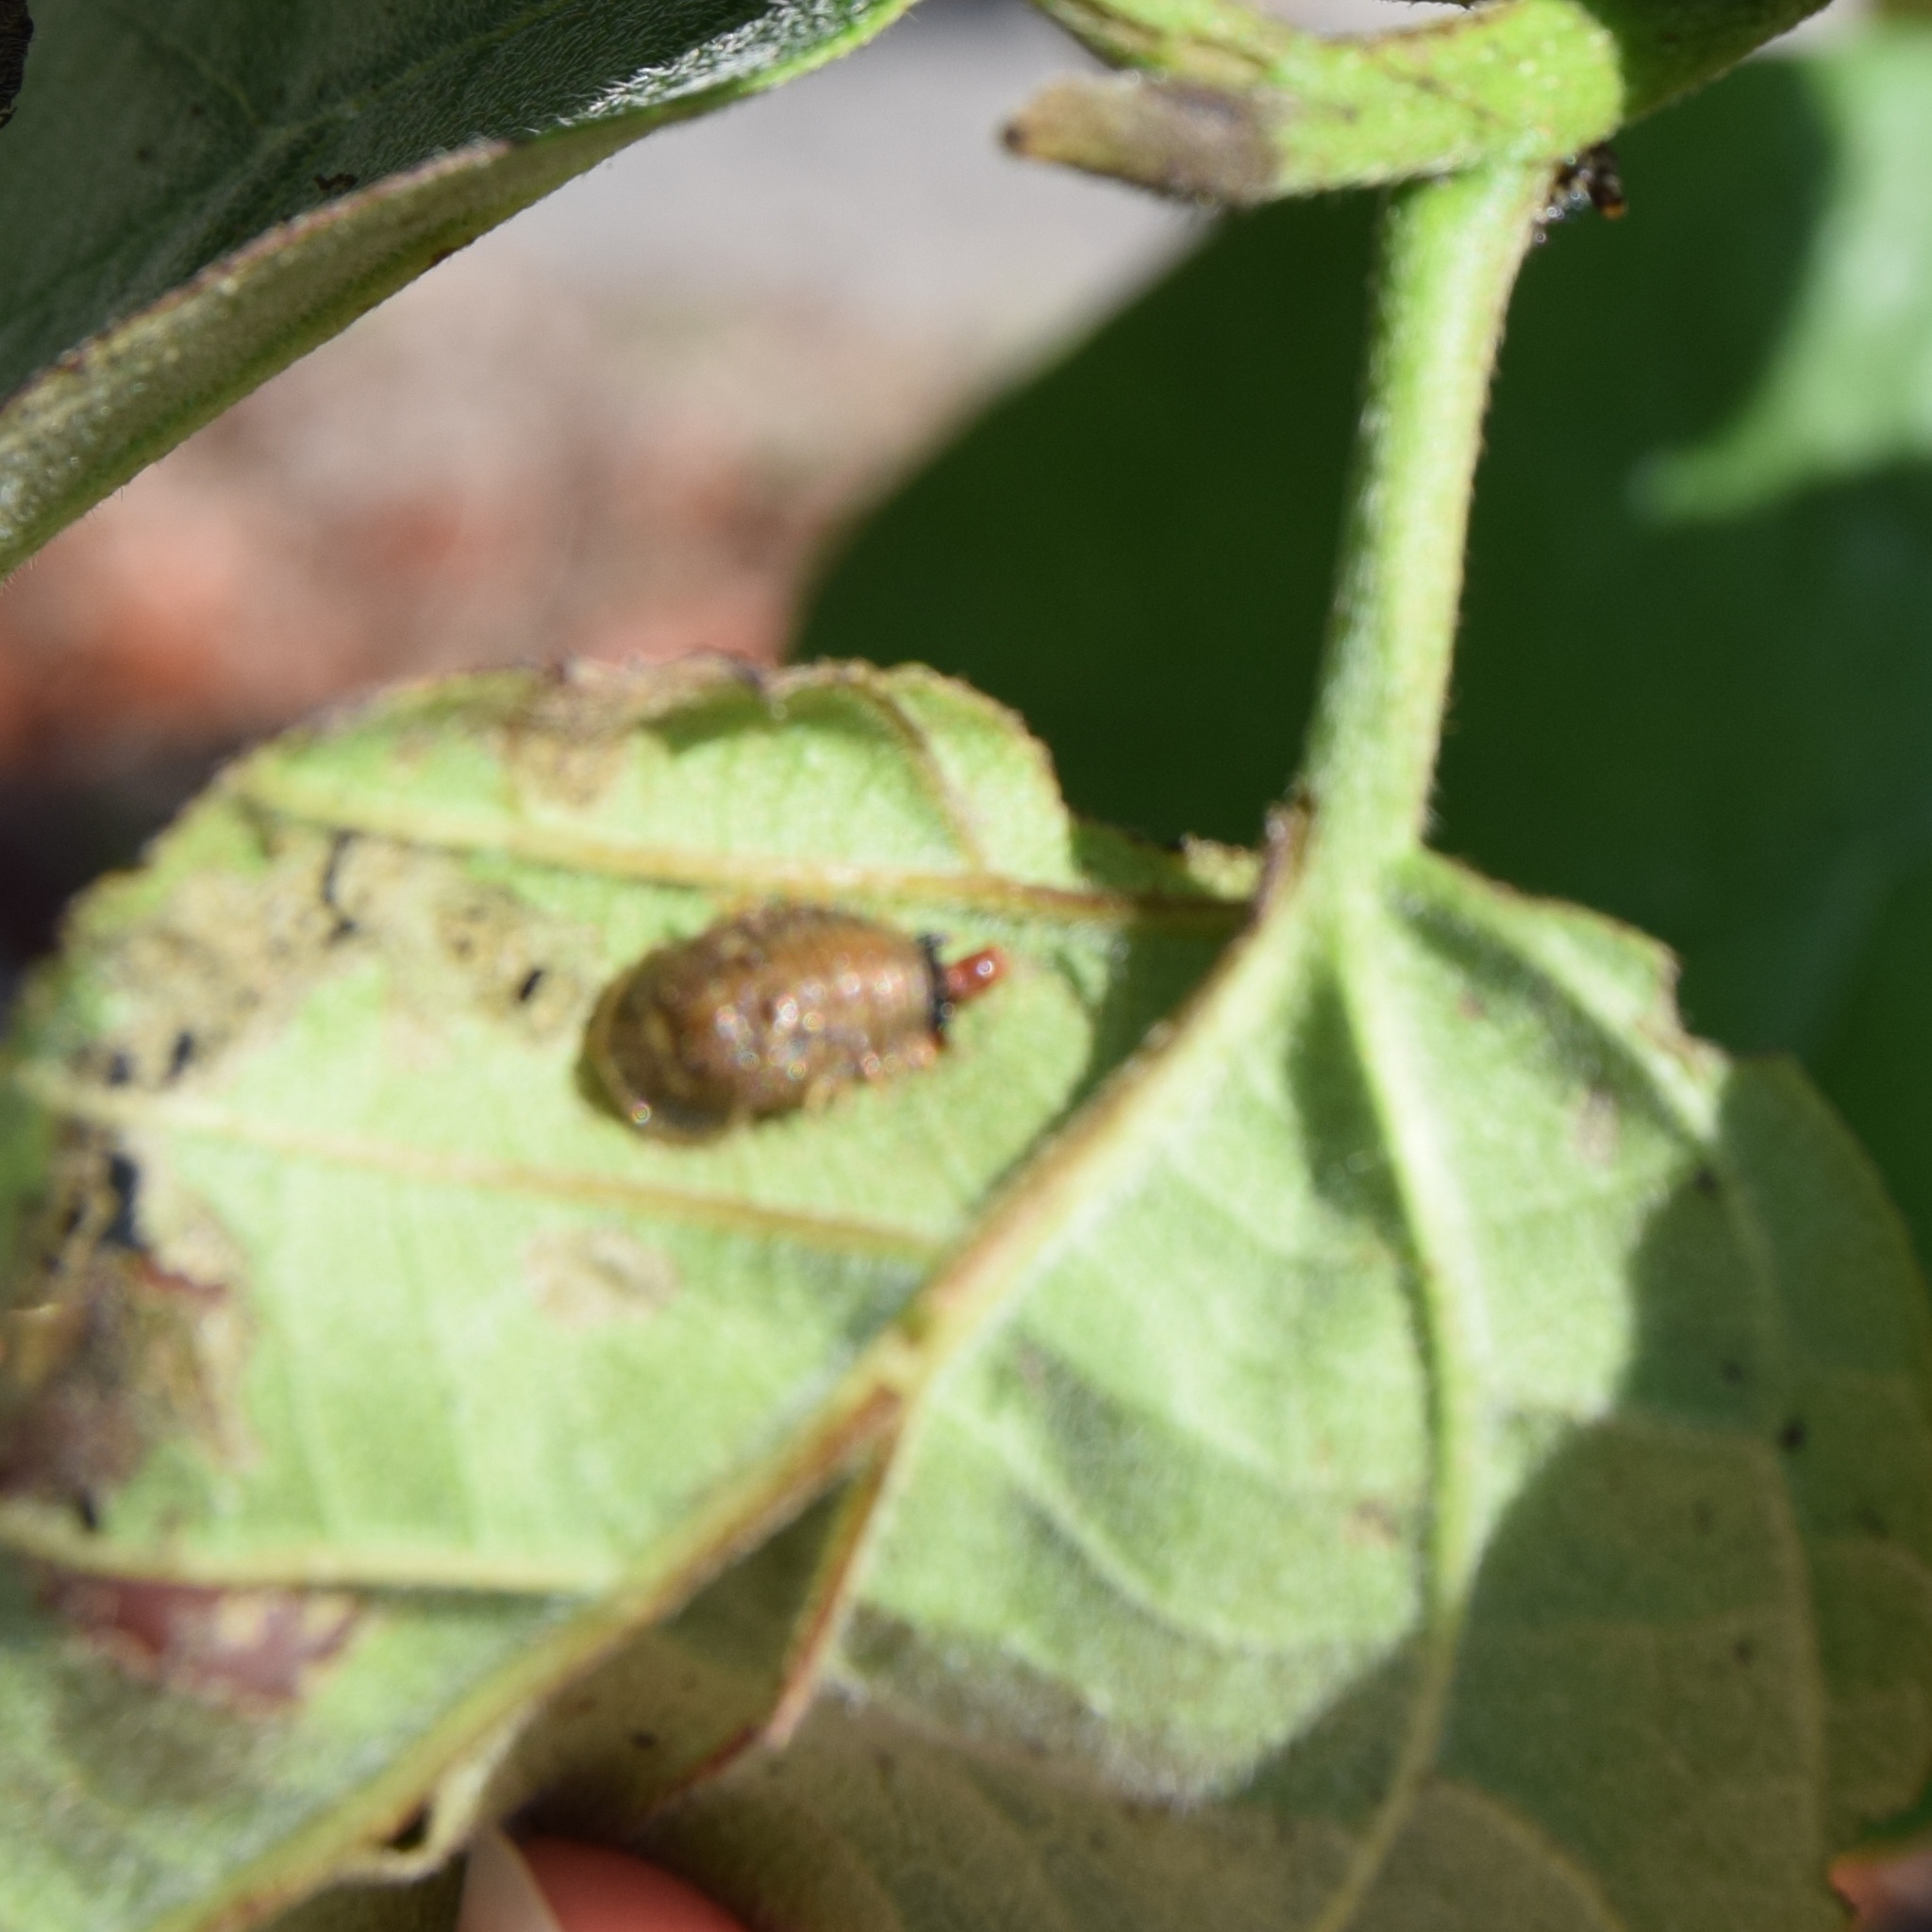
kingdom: Animalia
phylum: Arthropoda
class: Insecta
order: Coleoptera
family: Chrysomelidae
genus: Eurypepla
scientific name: Eurypepla calochroma
